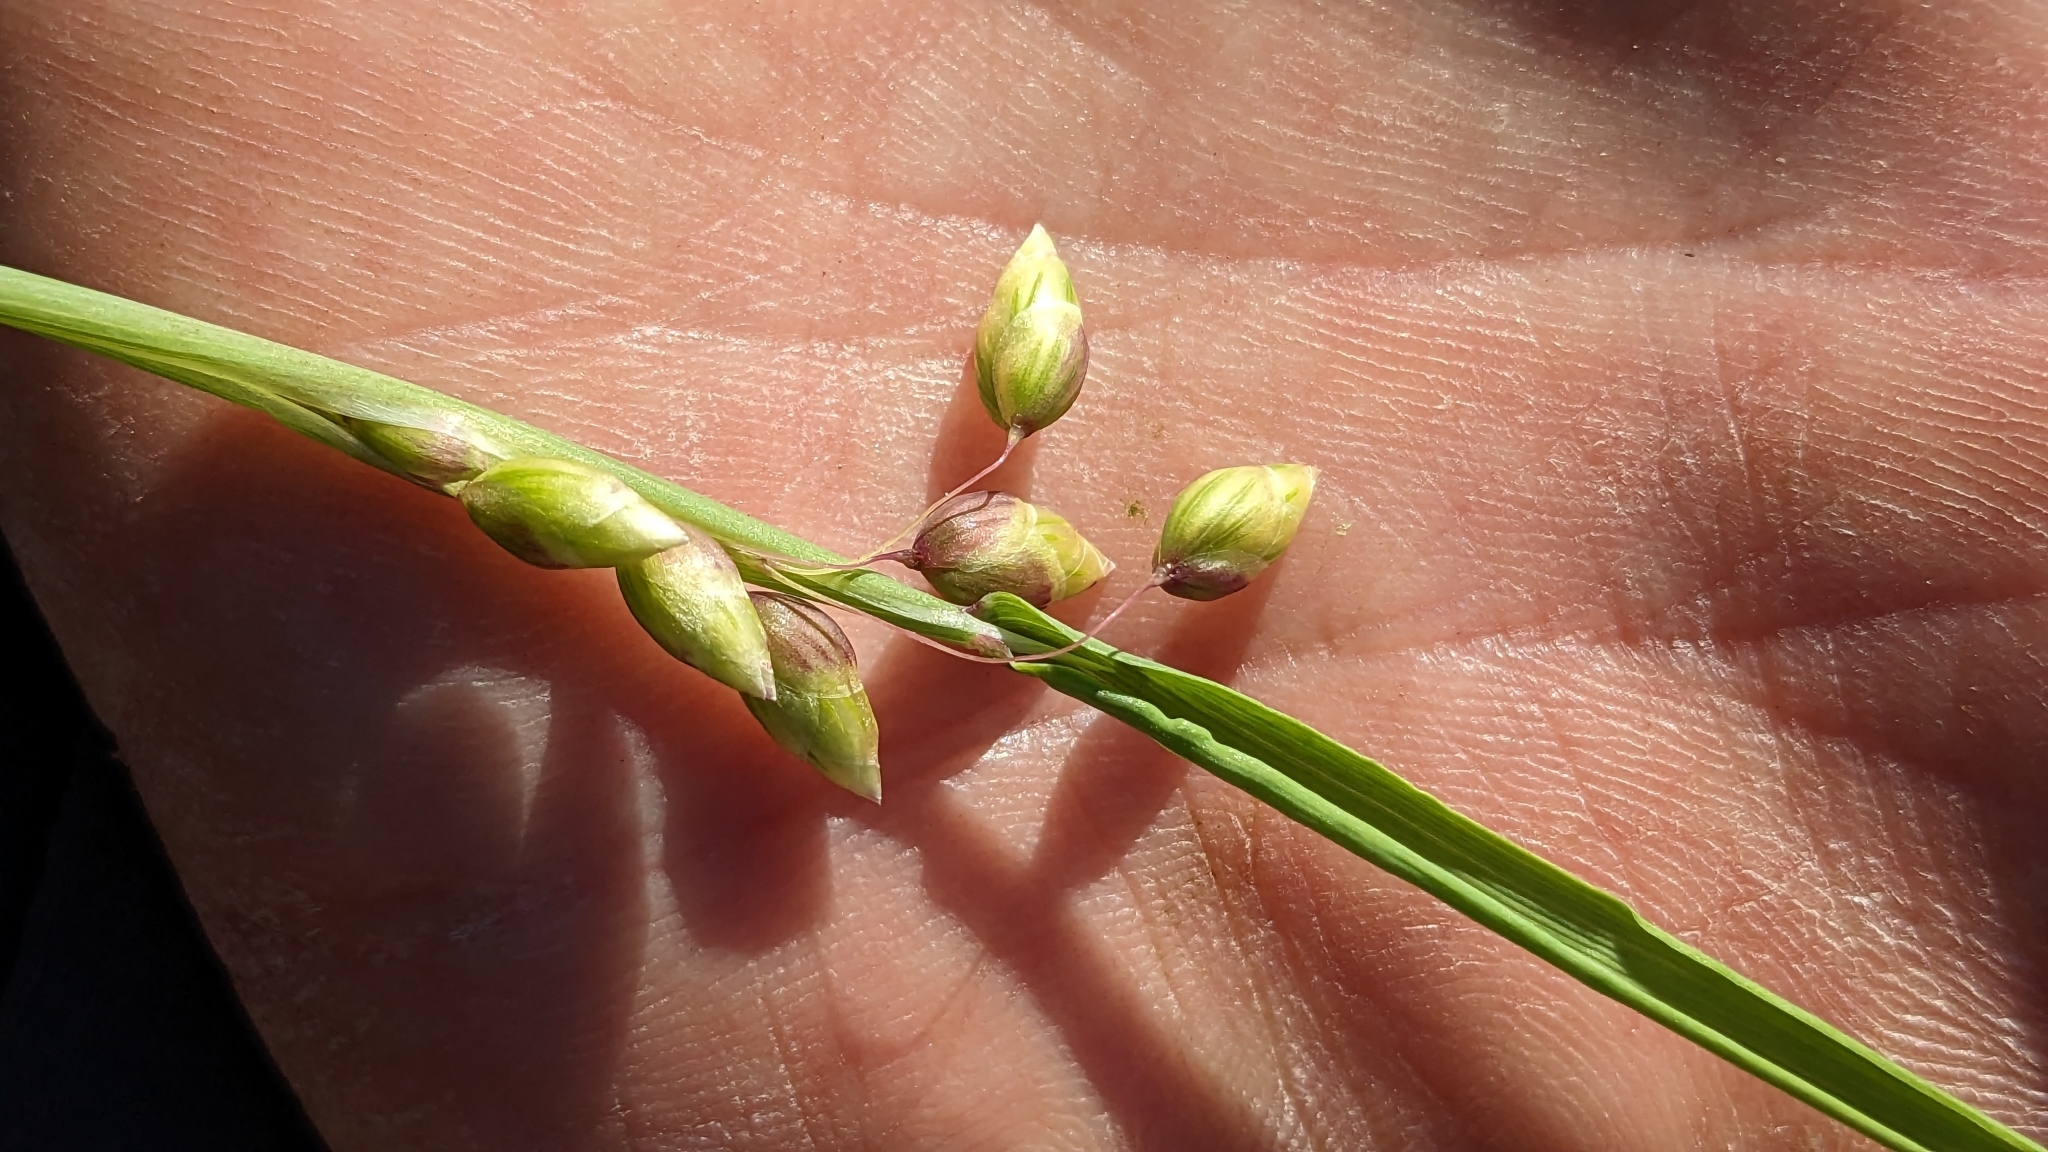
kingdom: Plantae
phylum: Tracheophyta
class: Liliopsida
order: Poales
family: Poaceae
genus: Briza
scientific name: Briza maxima
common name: Big quakinggrass
